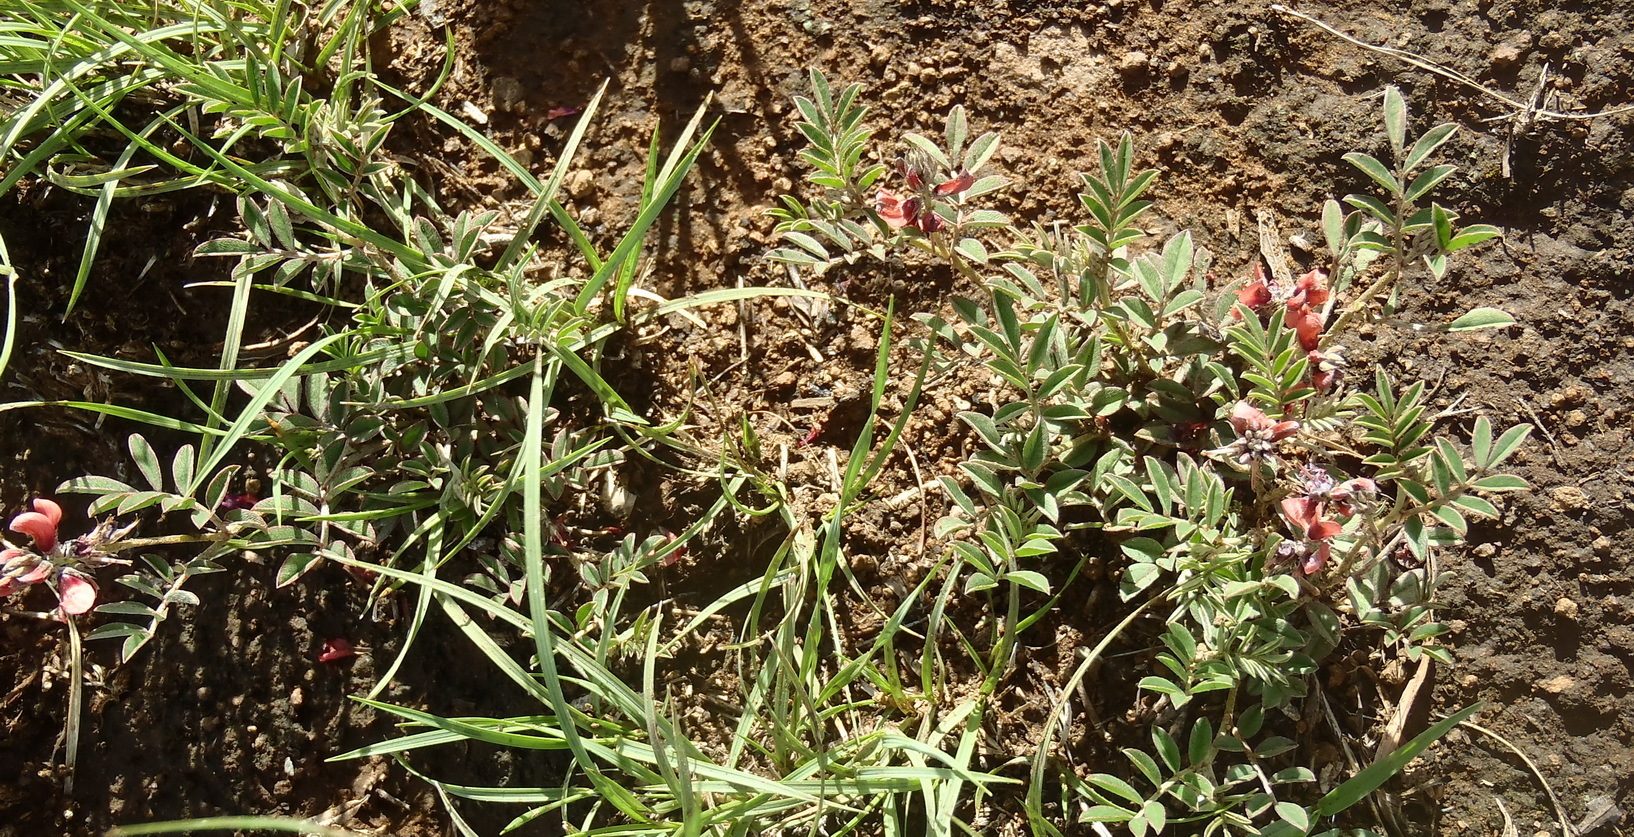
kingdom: Plantae
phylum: Tracheophyta
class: Magnoliopsida
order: Fabales
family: Fabaceae
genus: Indigofera
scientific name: Indigofera alternans
